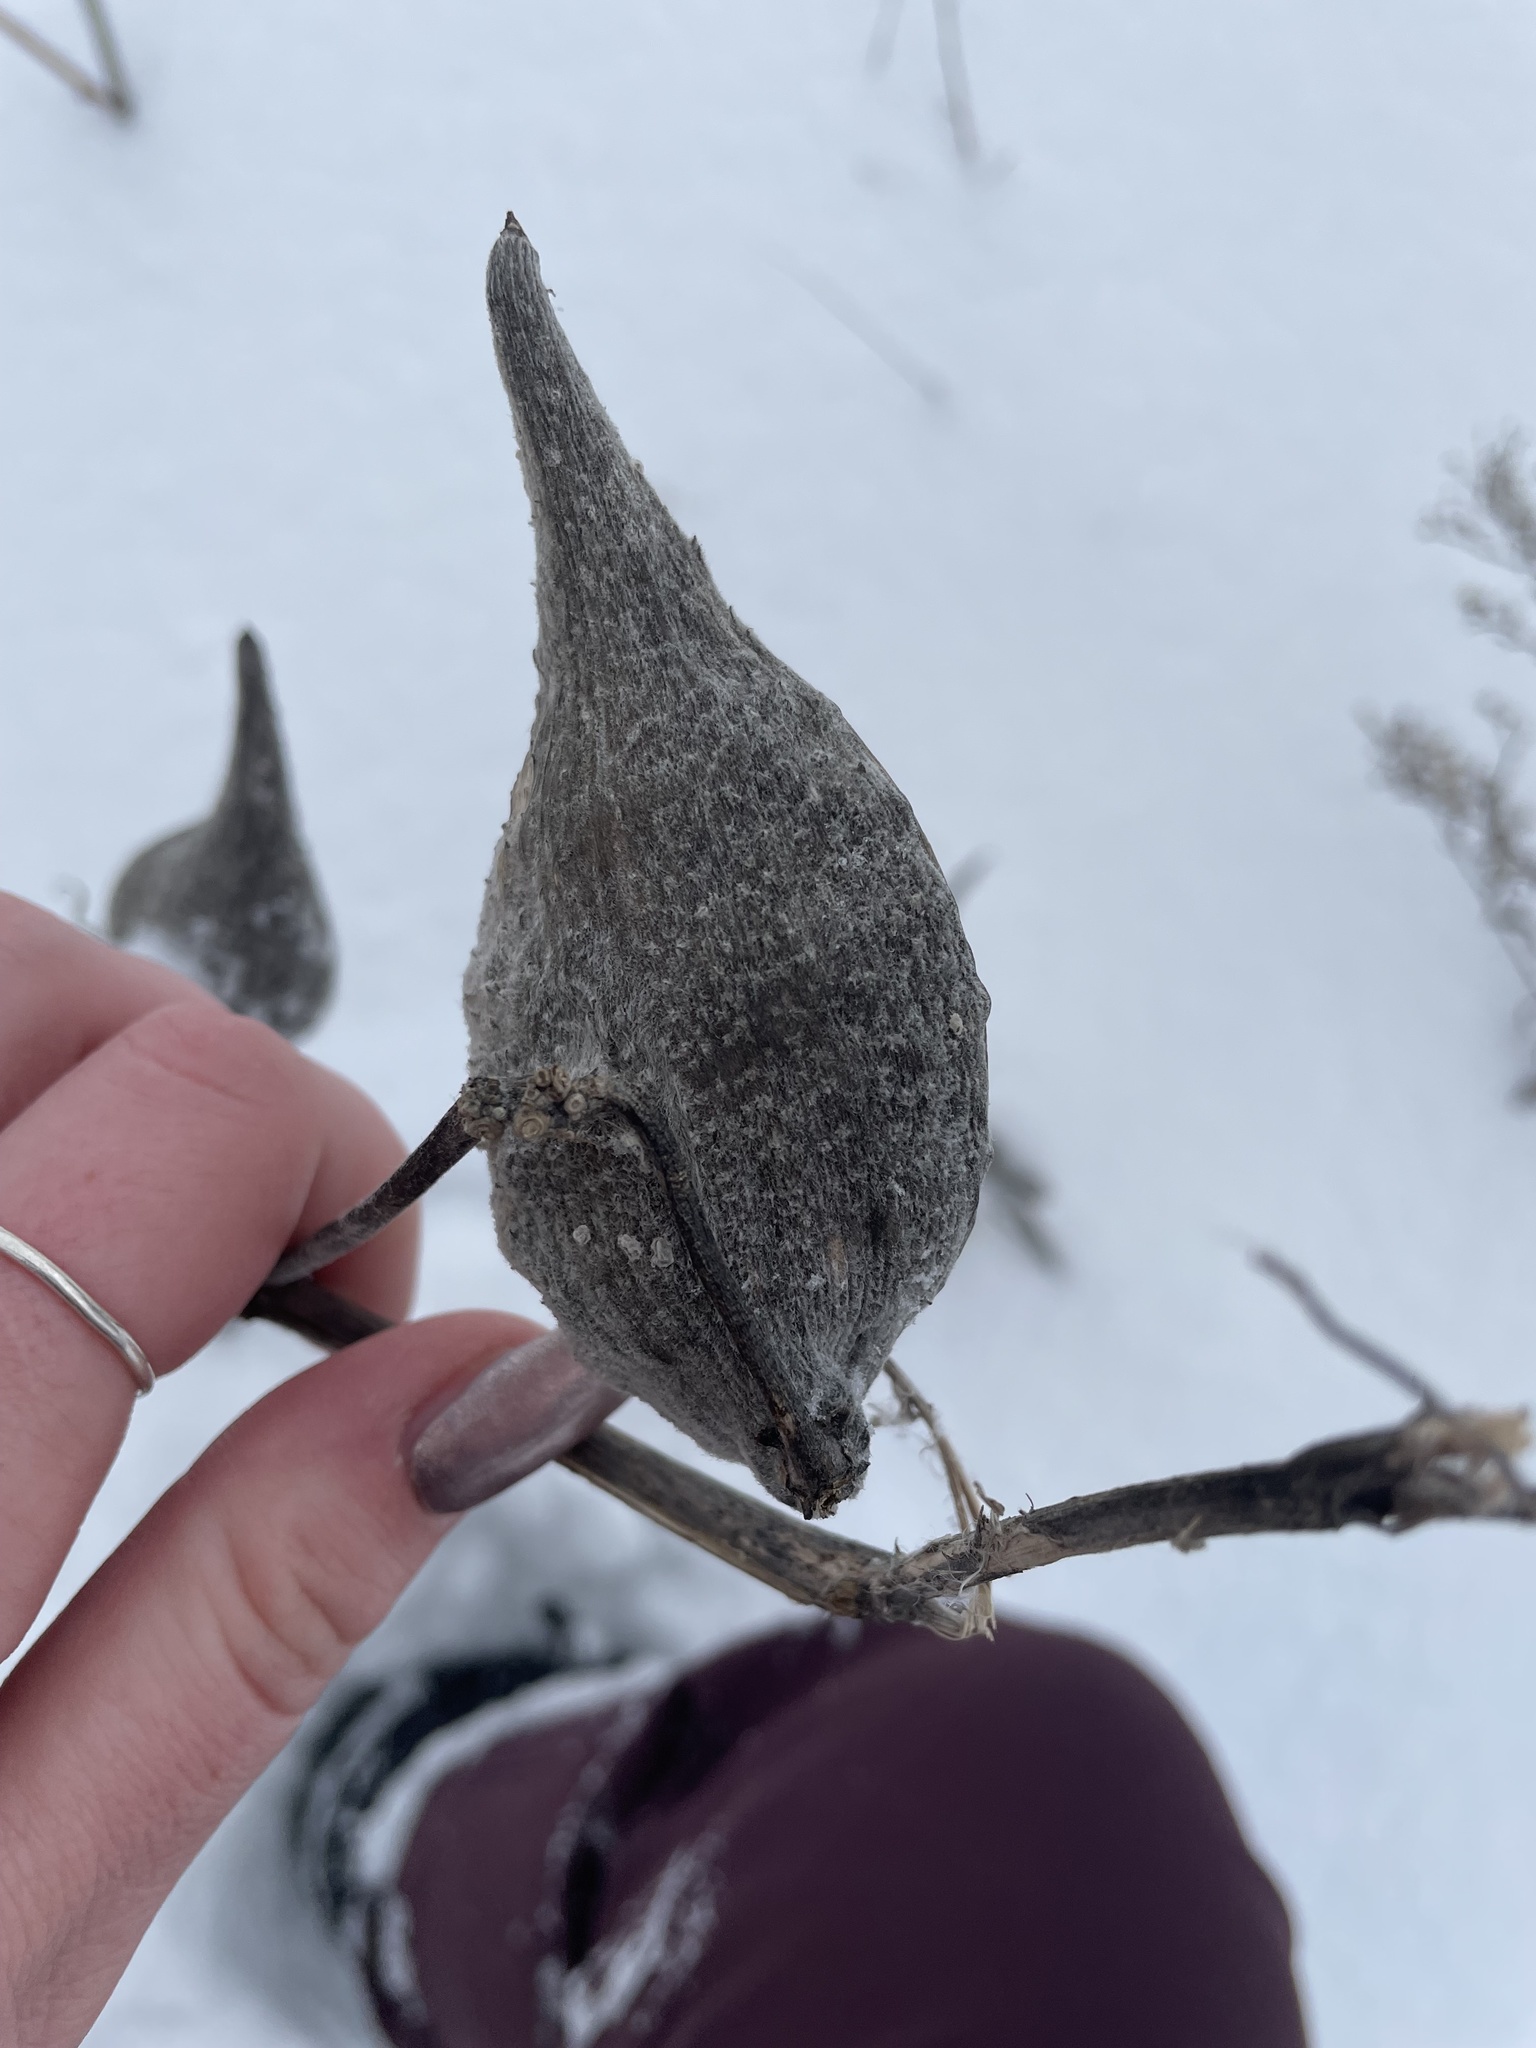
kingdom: Plantae
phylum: Tracheophyta
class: Magnoliopsida
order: Gentianales
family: Apocynaceae
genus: Asclepias
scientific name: Asclepias syriaca
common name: Common milkweed
